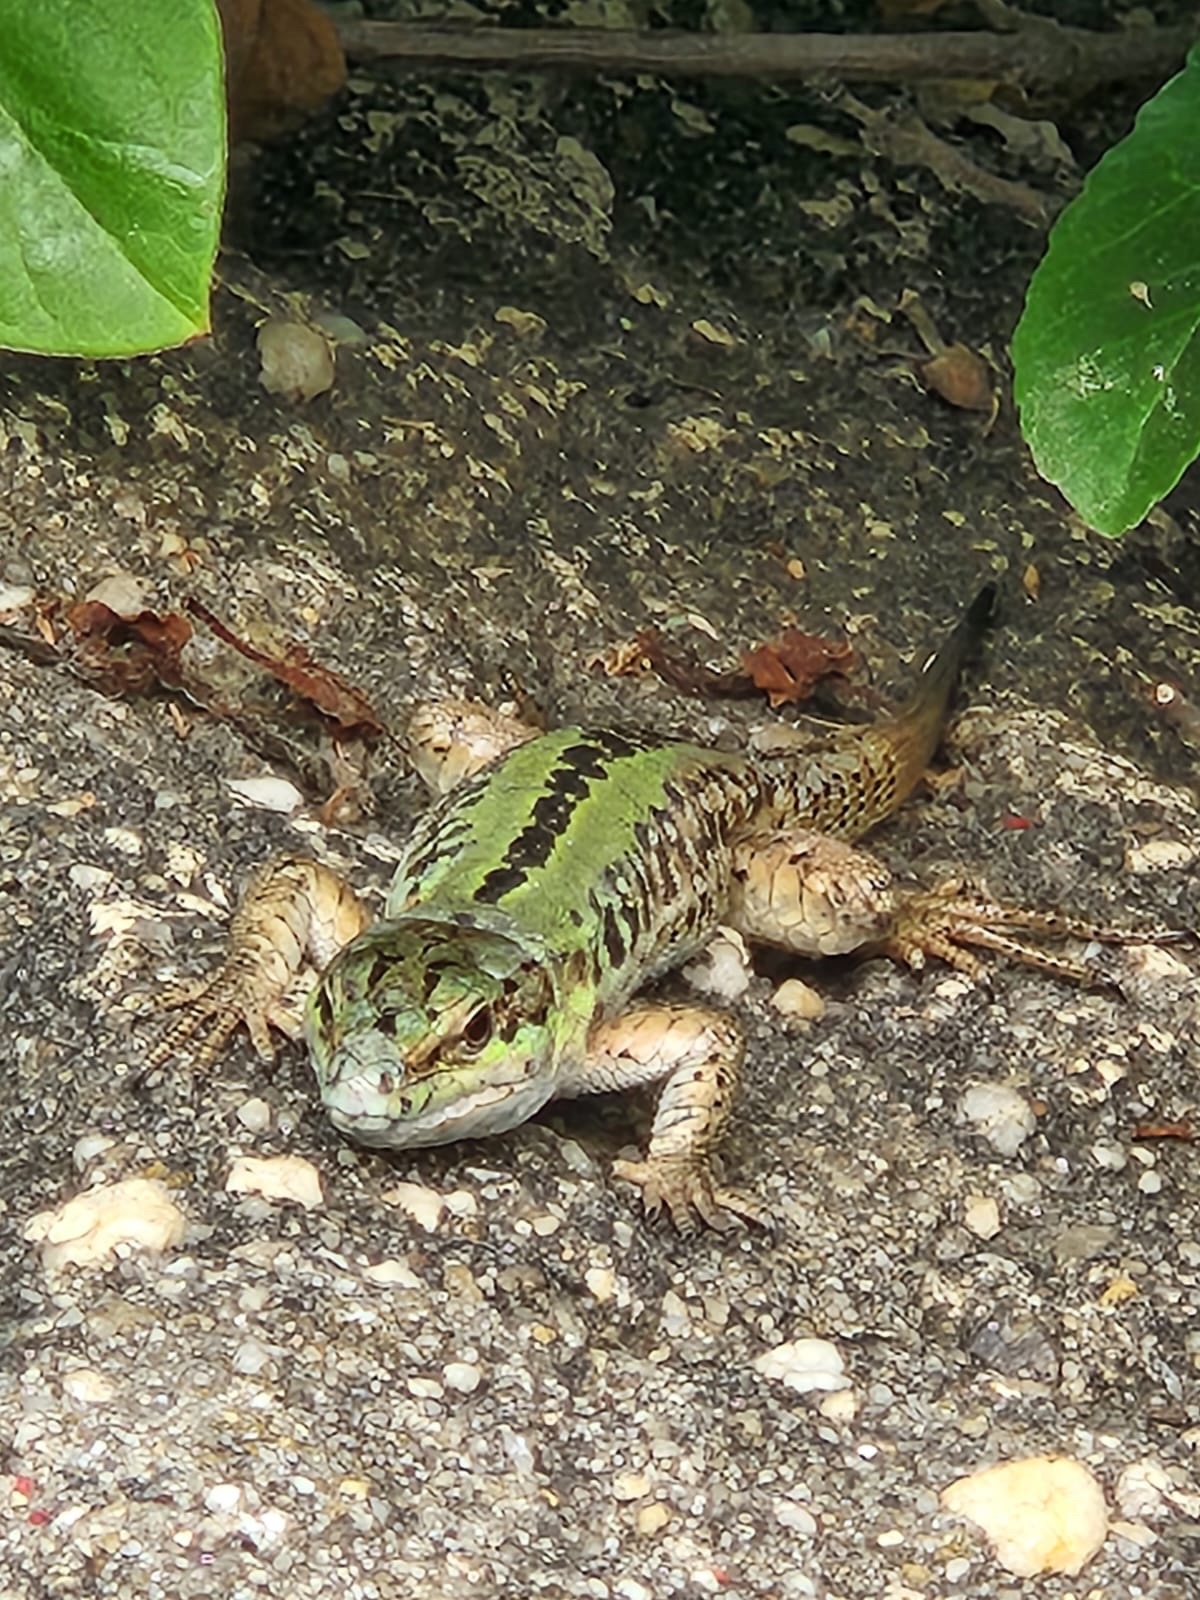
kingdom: Animalia
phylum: Chordata
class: Squamata
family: Lacertidae
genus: Podarcis
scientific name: Podarcis siculus
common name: Italian wall lizard
